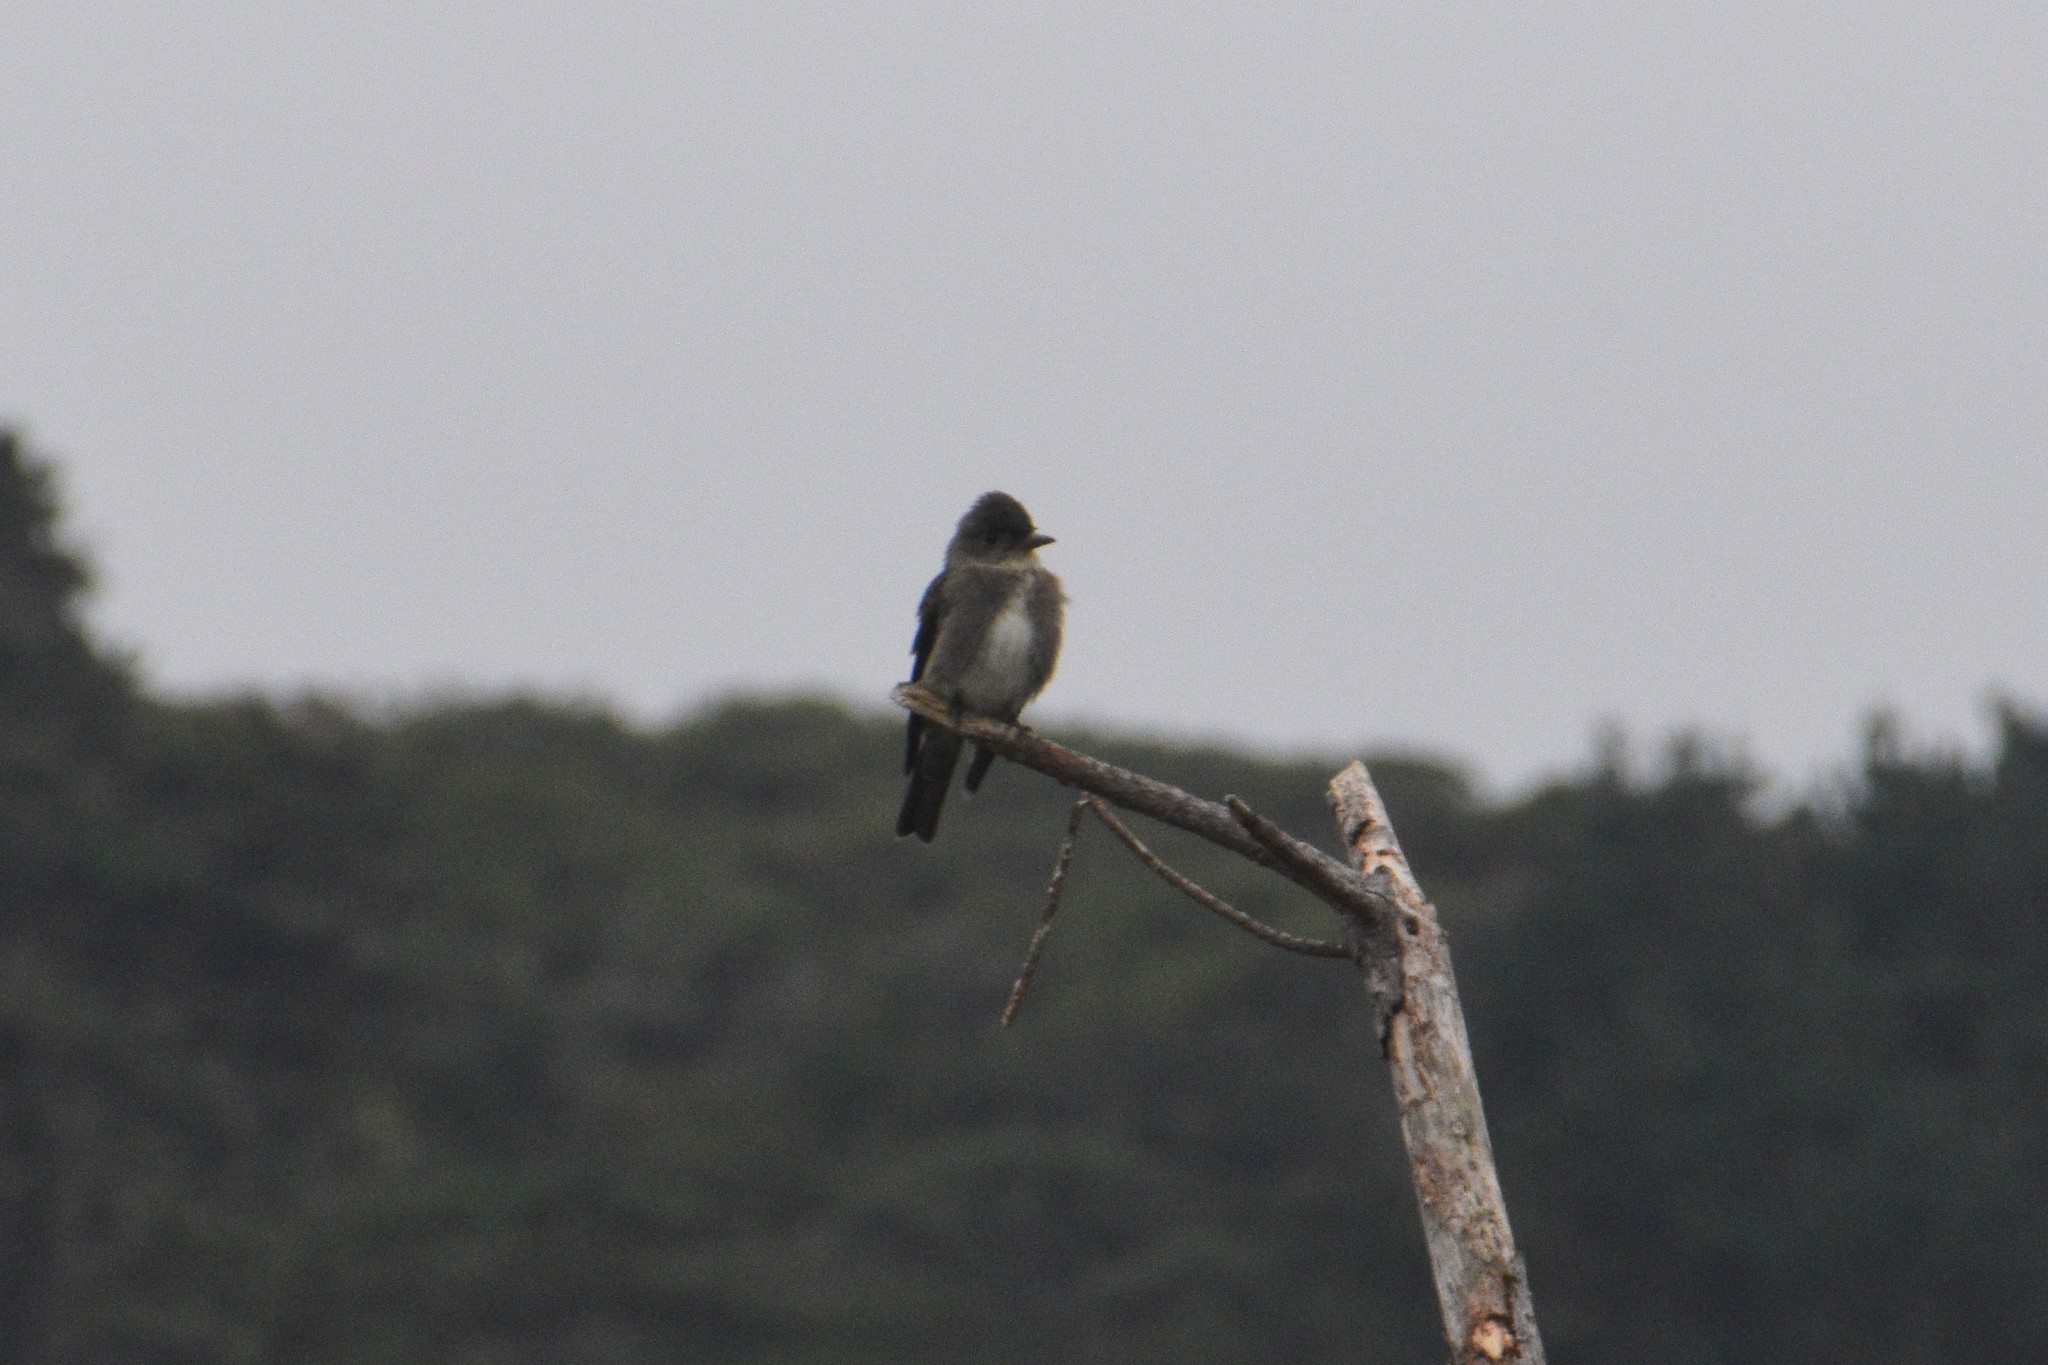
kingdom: Animalia
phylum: Chordata
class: Aves
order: Passeriformes
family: Tyrannidae
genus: Contopus
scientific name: Contopus cooperi
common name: Olive-sided flycatcher
